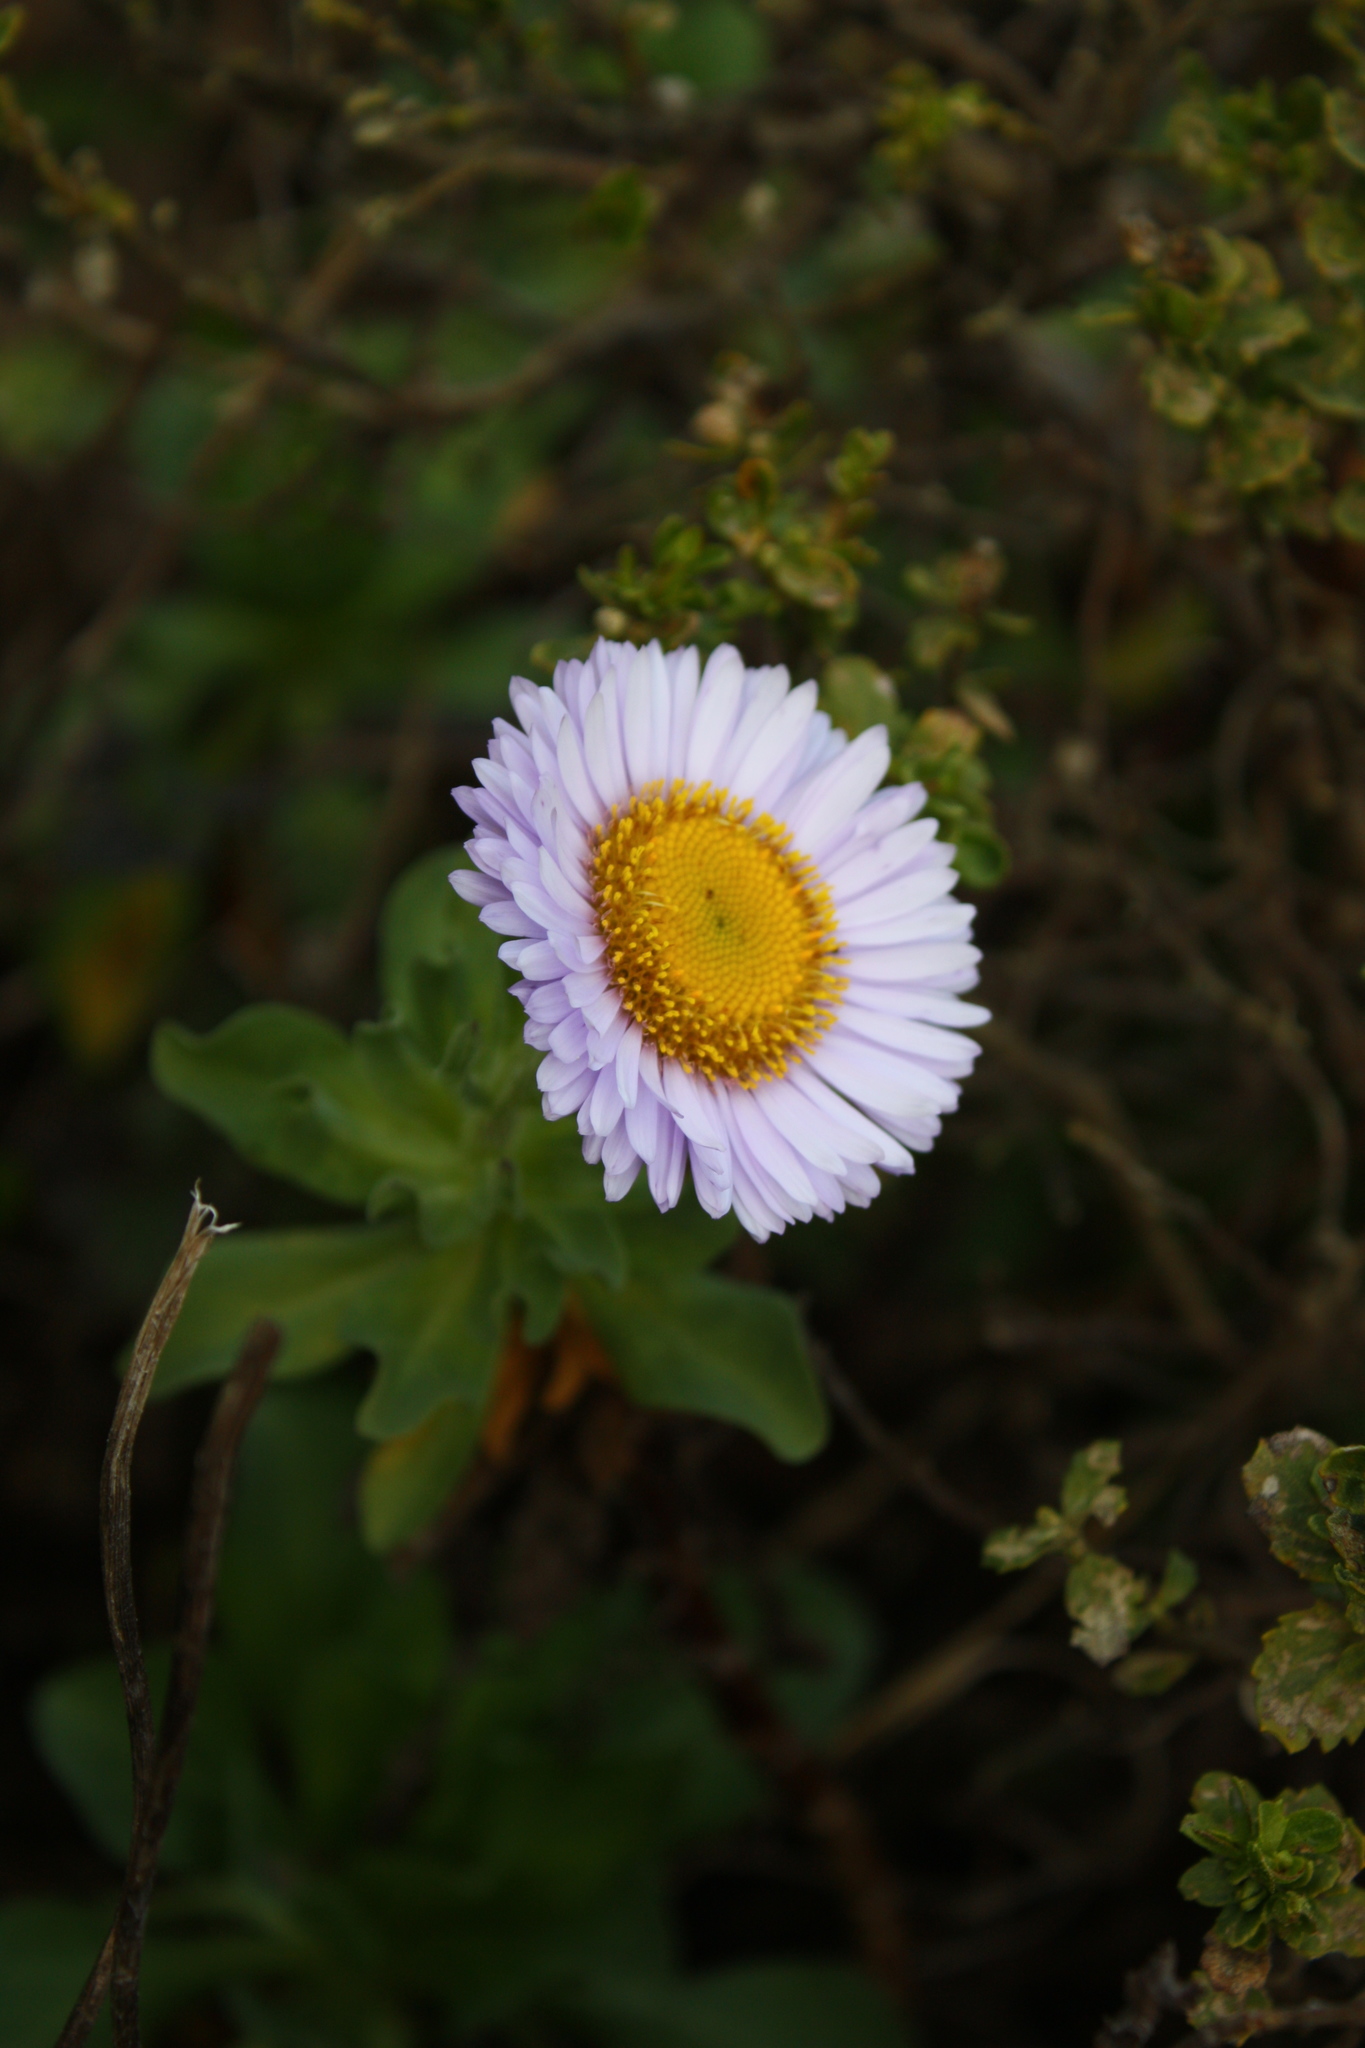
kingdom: Plantae
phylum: Tracheophyta
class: Magnoliopsida
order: Asterales
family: Asteraceae
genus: Erigeron
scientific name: Erigeron glaucus
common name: Seaside daisy
